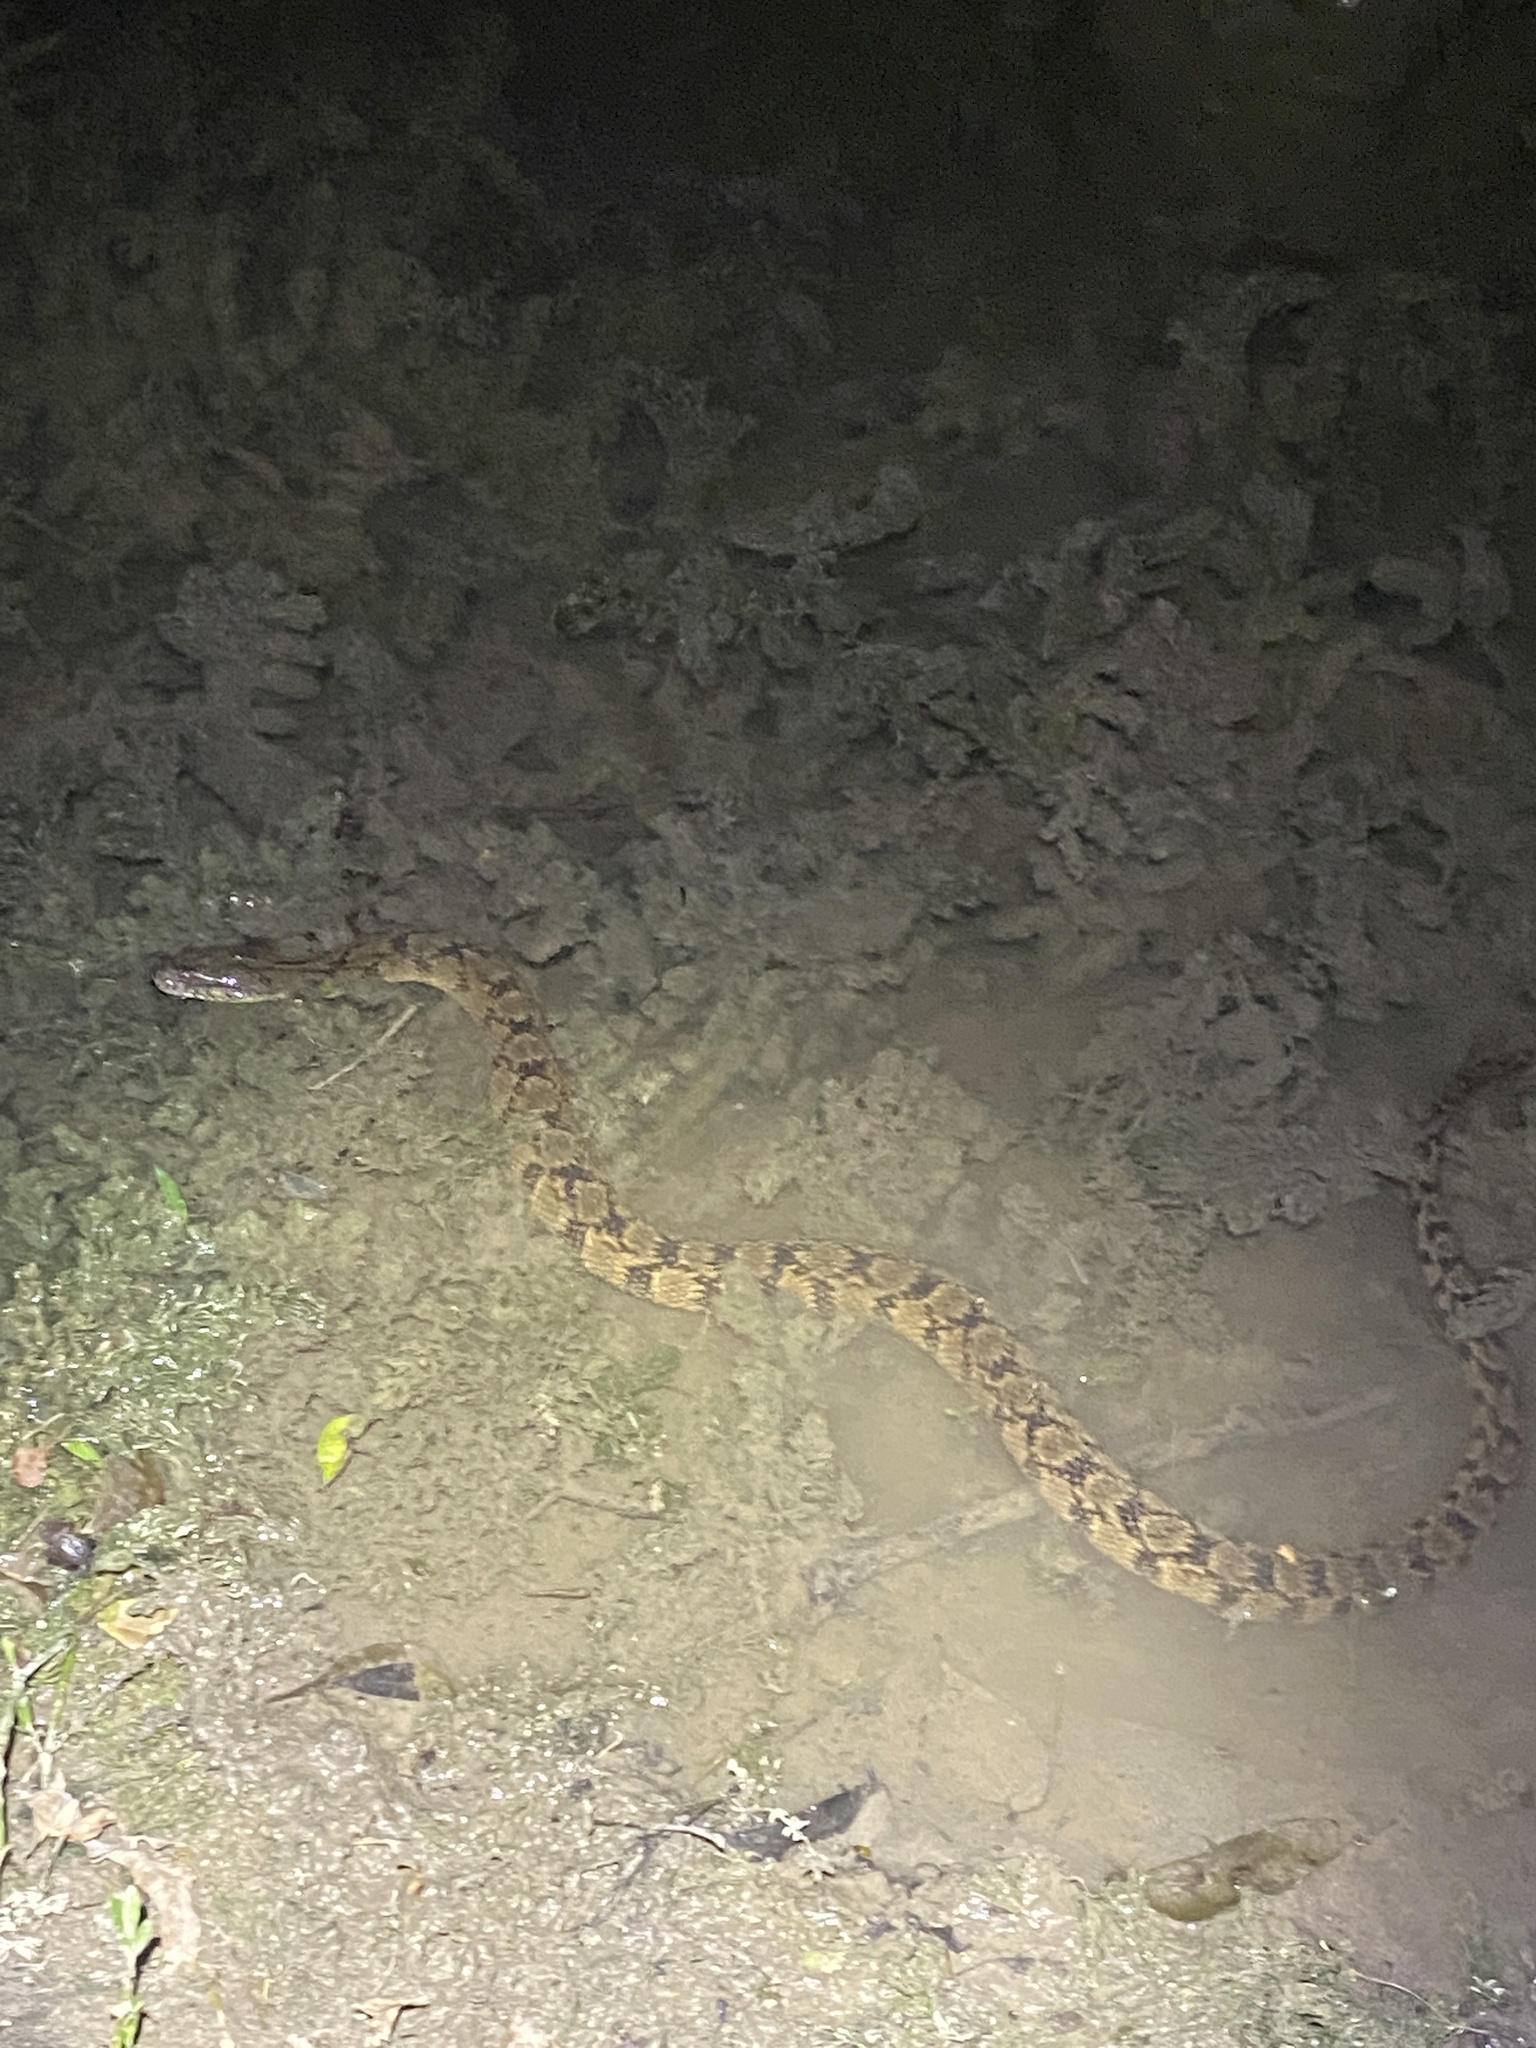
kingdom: Animalia
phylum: Chordata
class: Squamata
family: Colubridae
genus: Nerodia
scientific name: Nerodia rhombifer
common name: Diamondback water snake
